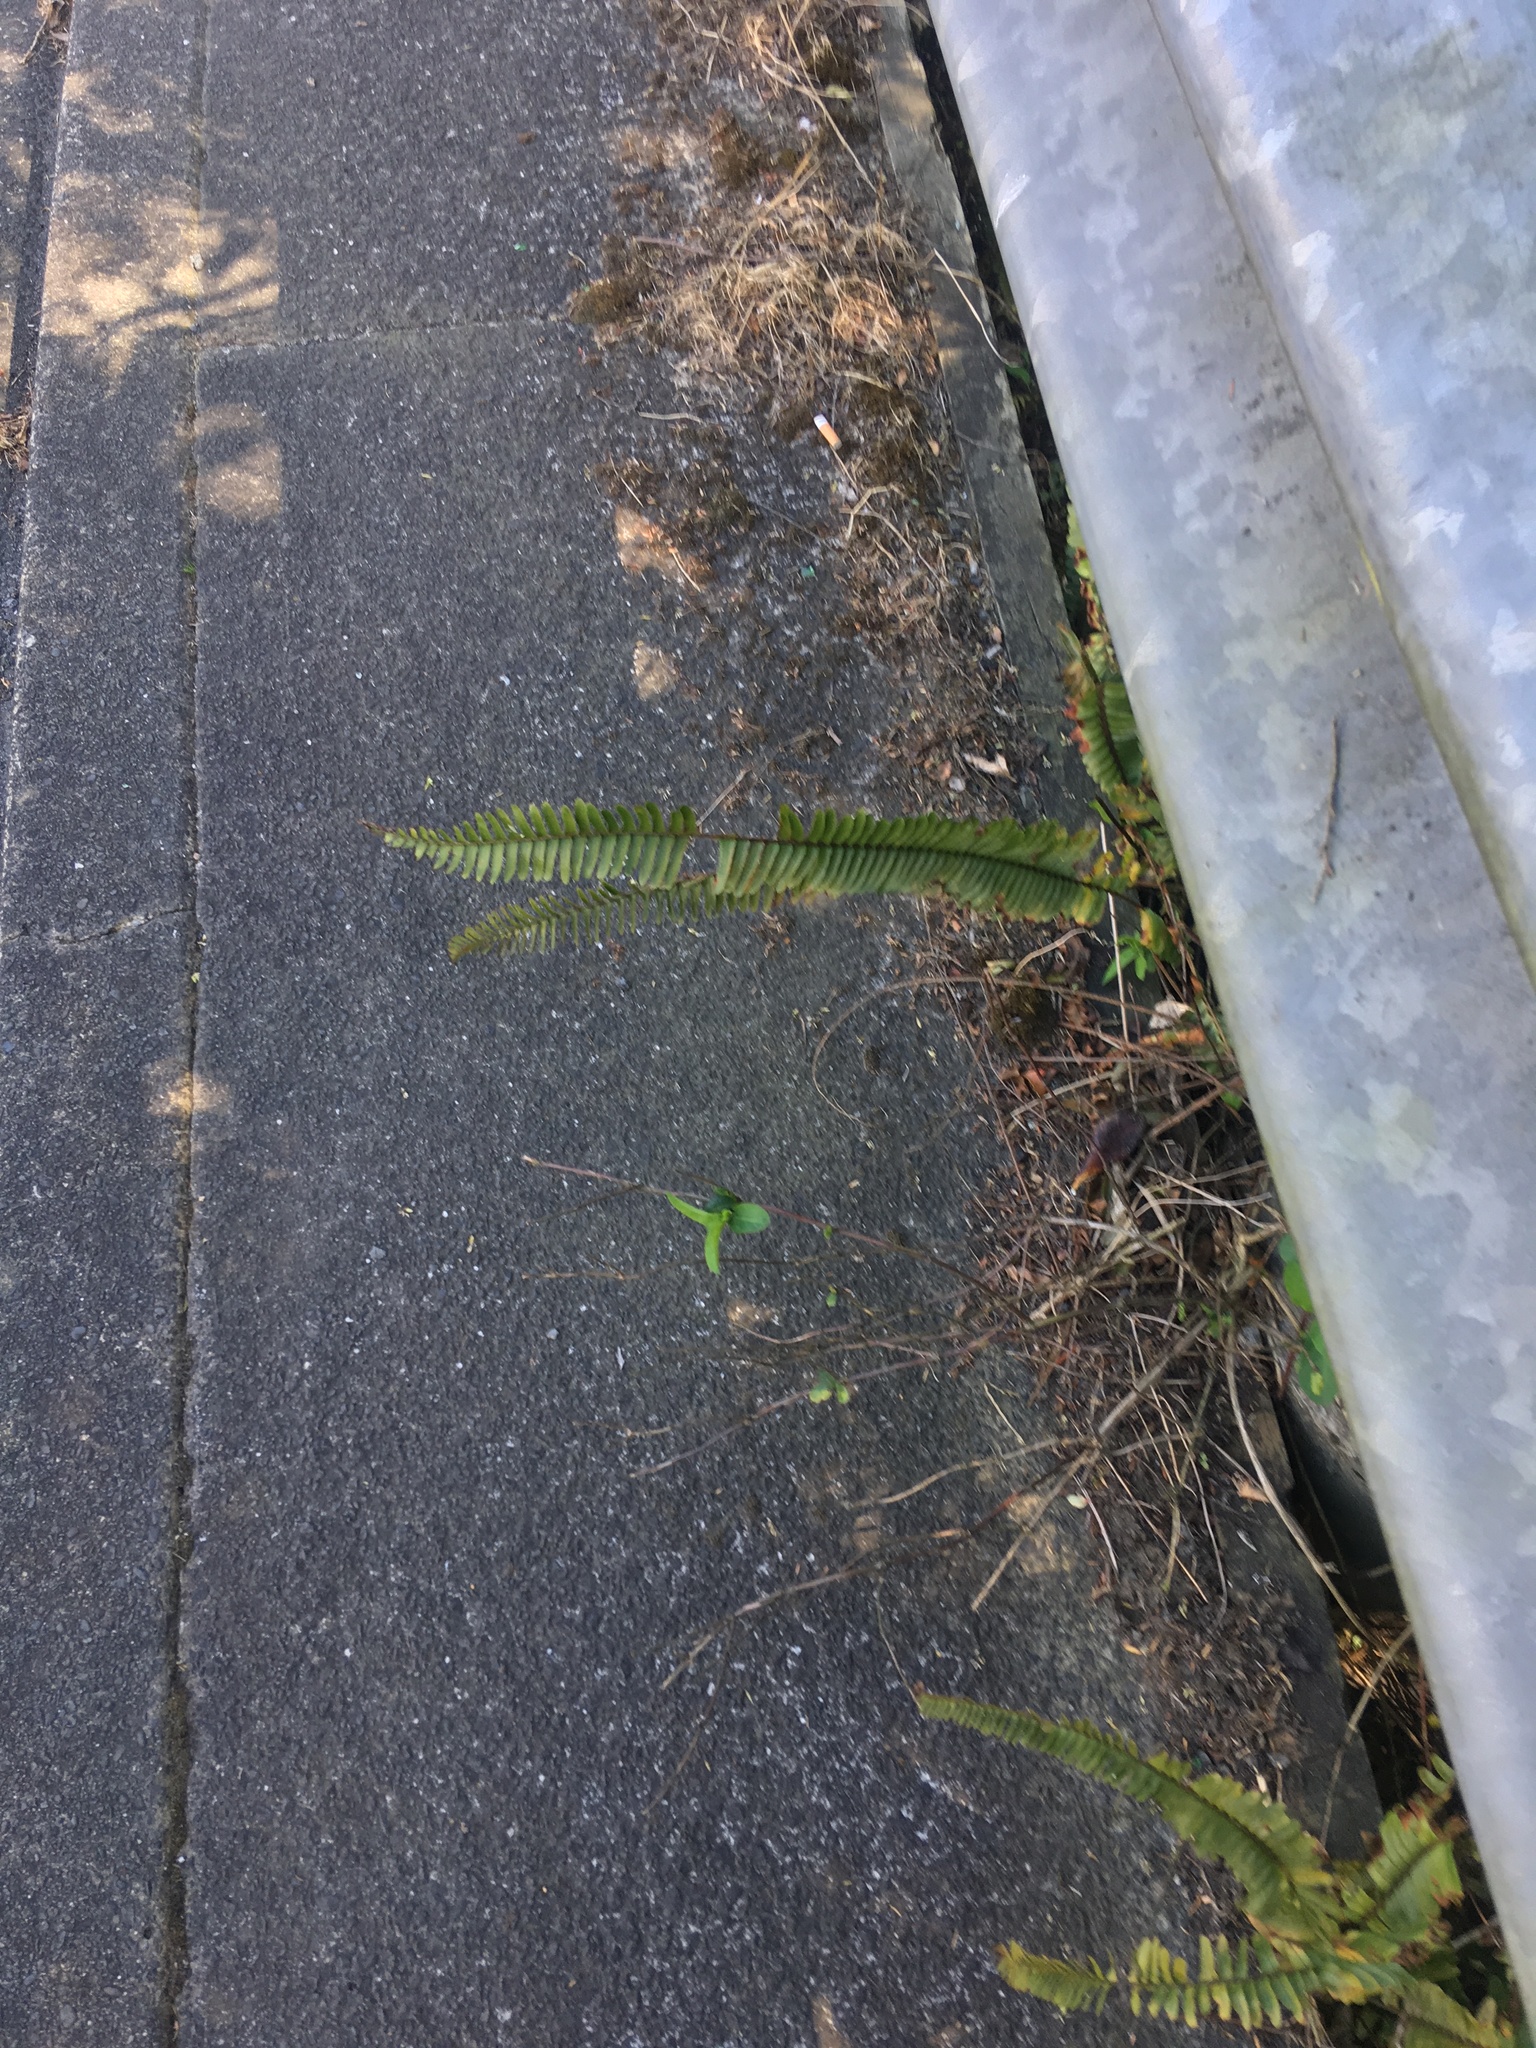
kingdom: Plantae
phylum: Tracheophyta
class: Polypodiopsida
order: Polypodiales
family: Nephrolepidaceae
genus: Nephrolepis
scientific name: Nephrolepis cordifolia
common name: Narrow swordfern
